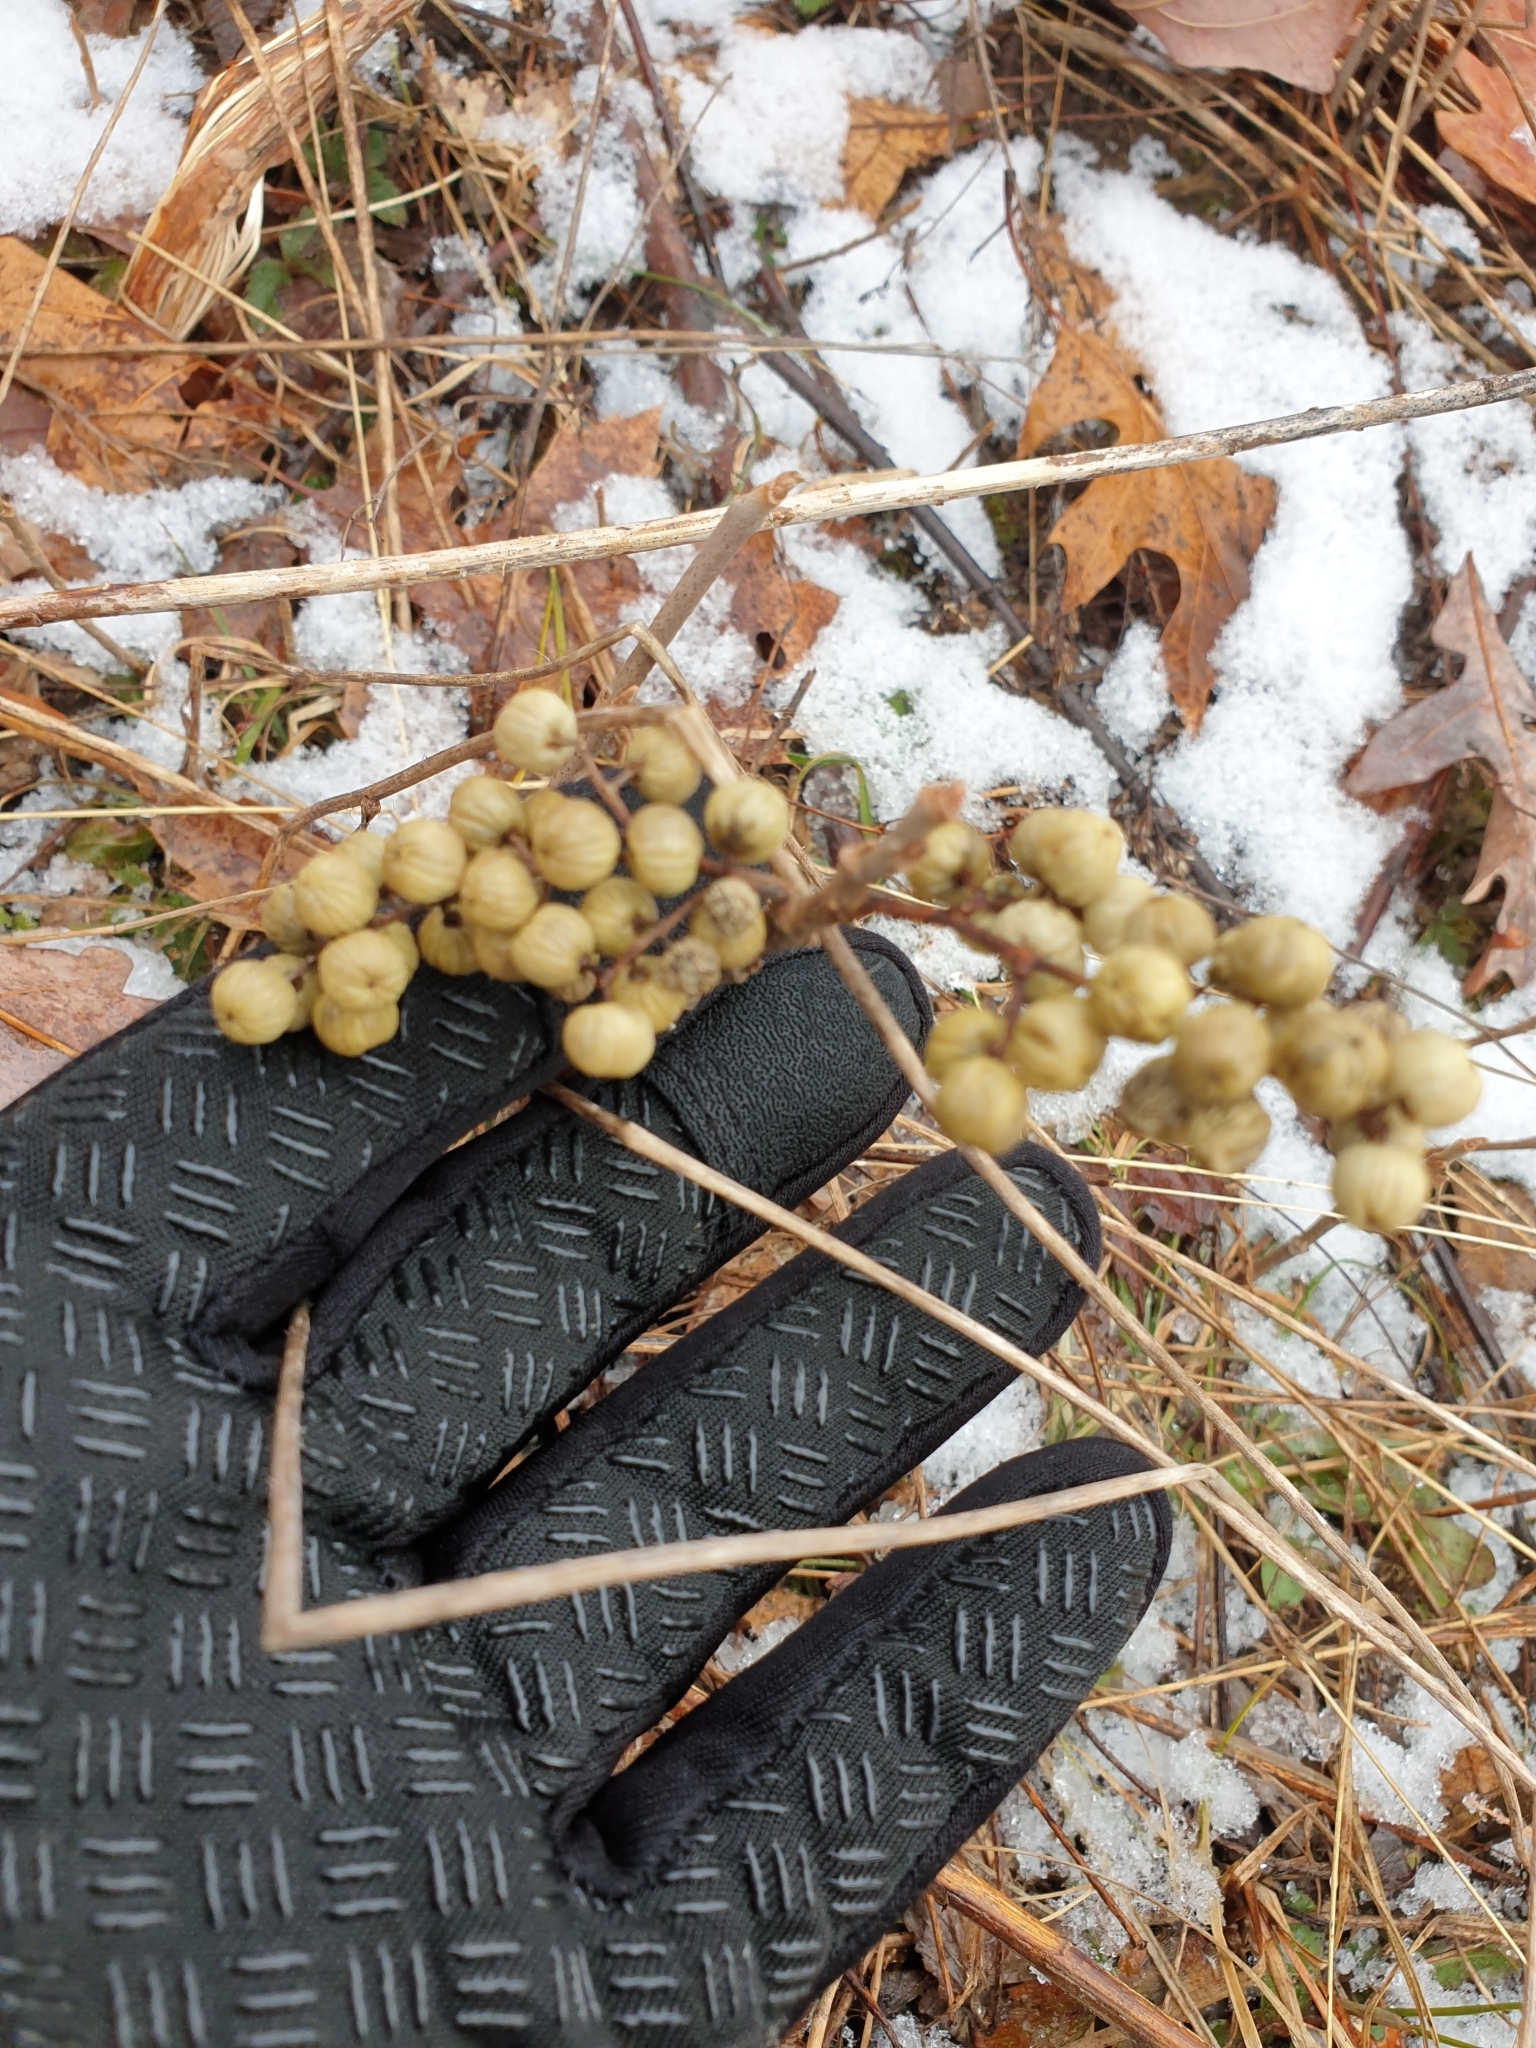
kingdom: Plantae
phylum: Tracheophyta
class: Magnoliopsida
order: Sapindales
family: Anacardiaceae
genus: Toxicodendron
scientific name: Toxicodendron rydbergii
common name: Rydberg's poison-ivy
